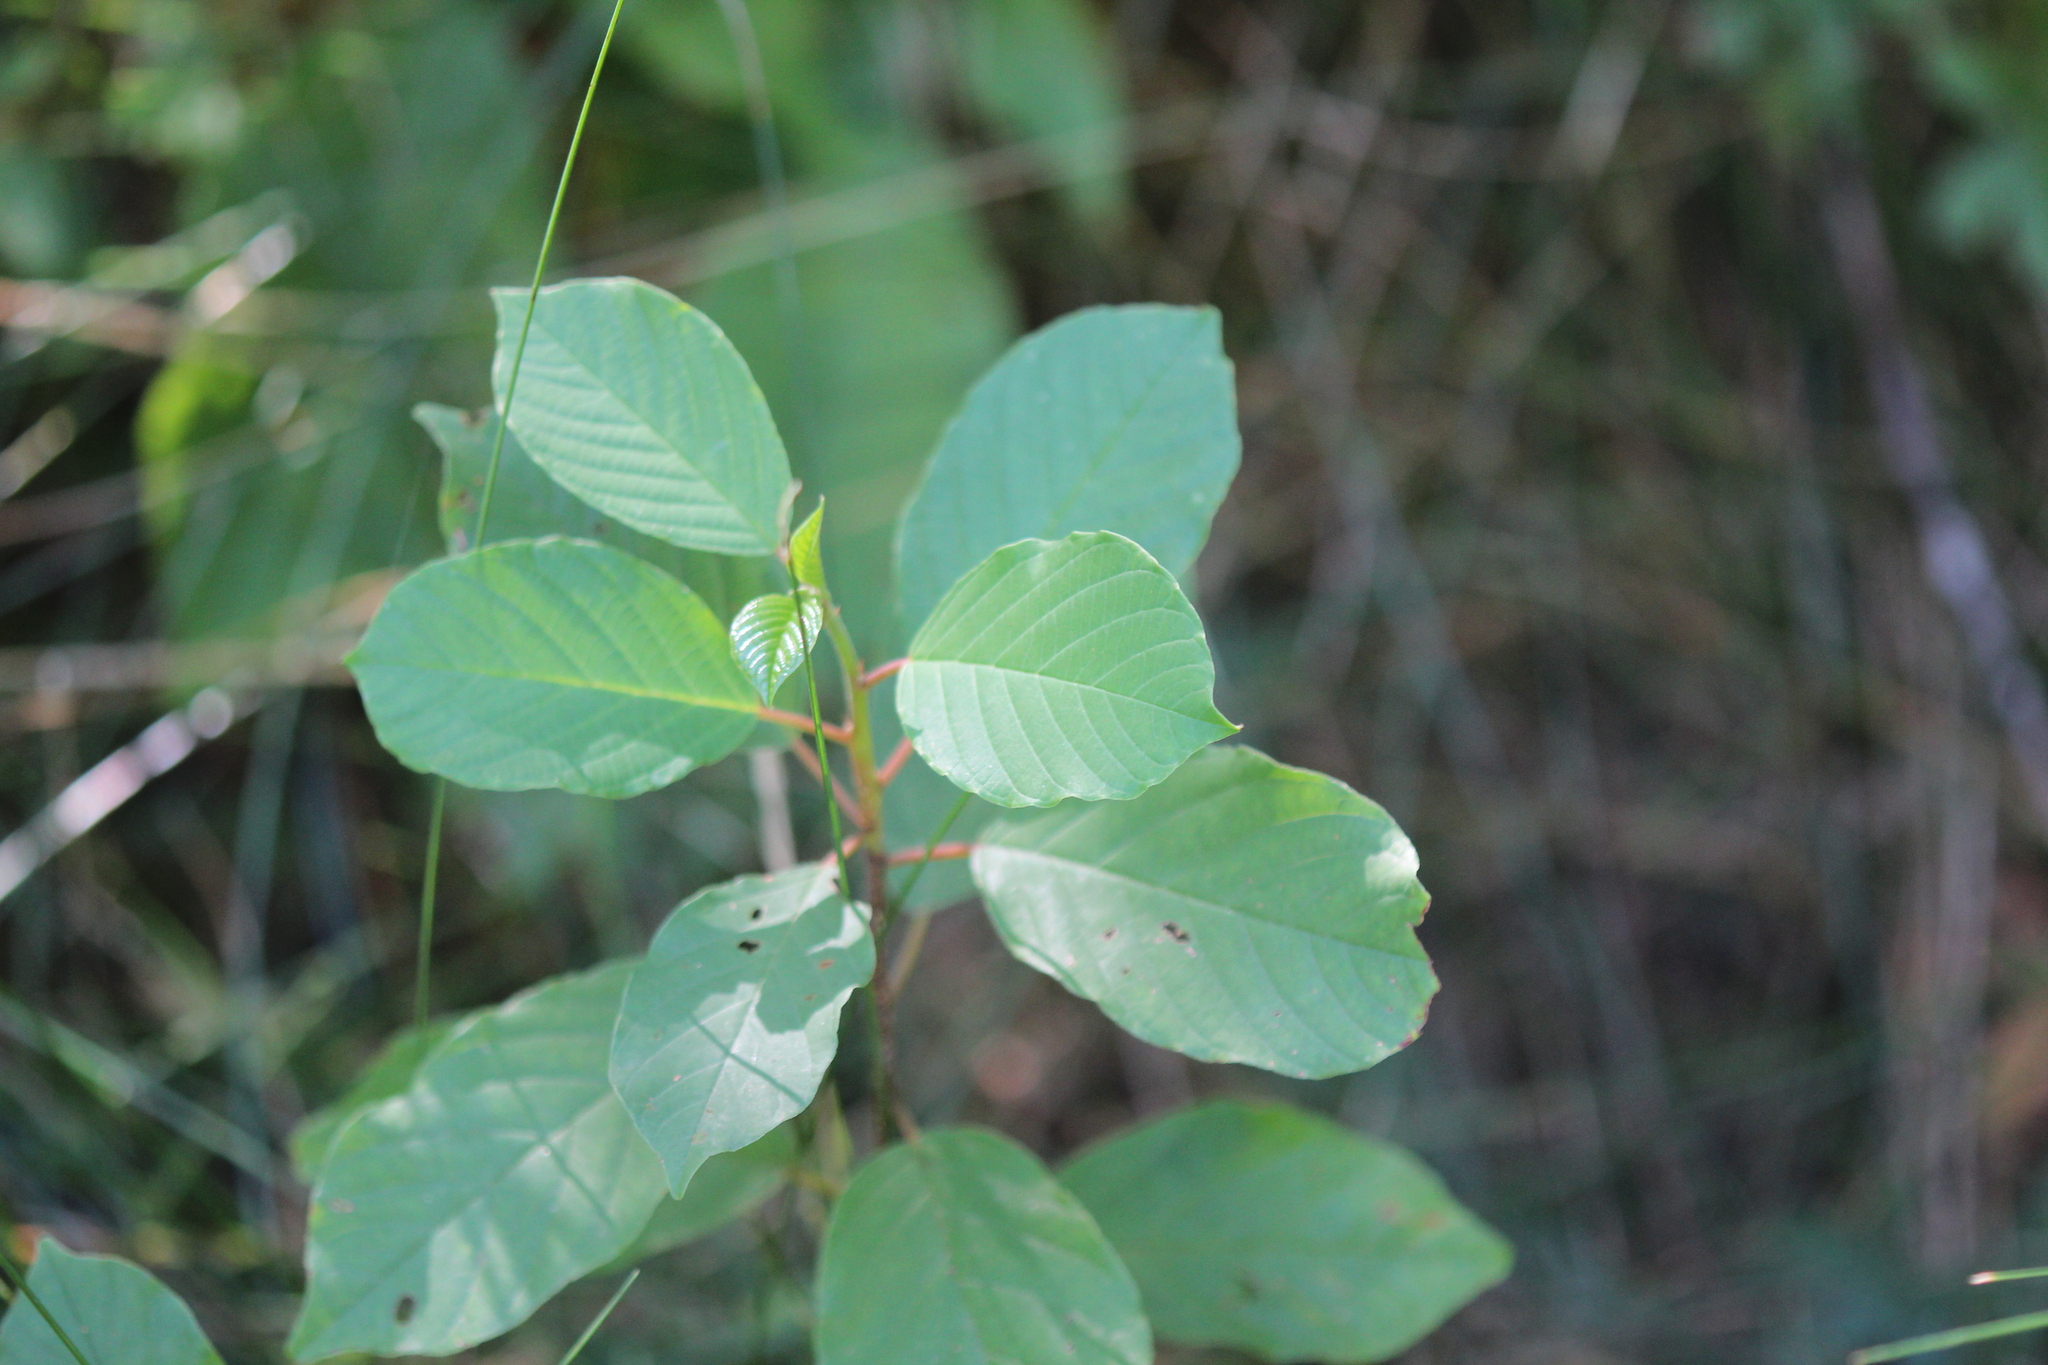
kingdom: Plantae
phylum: Tracheophyta
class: Magnoliopsida
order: Rosales
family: Rhamnaceae
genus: Frangula
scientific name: Frangula alnus
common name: Alder buckthorn
